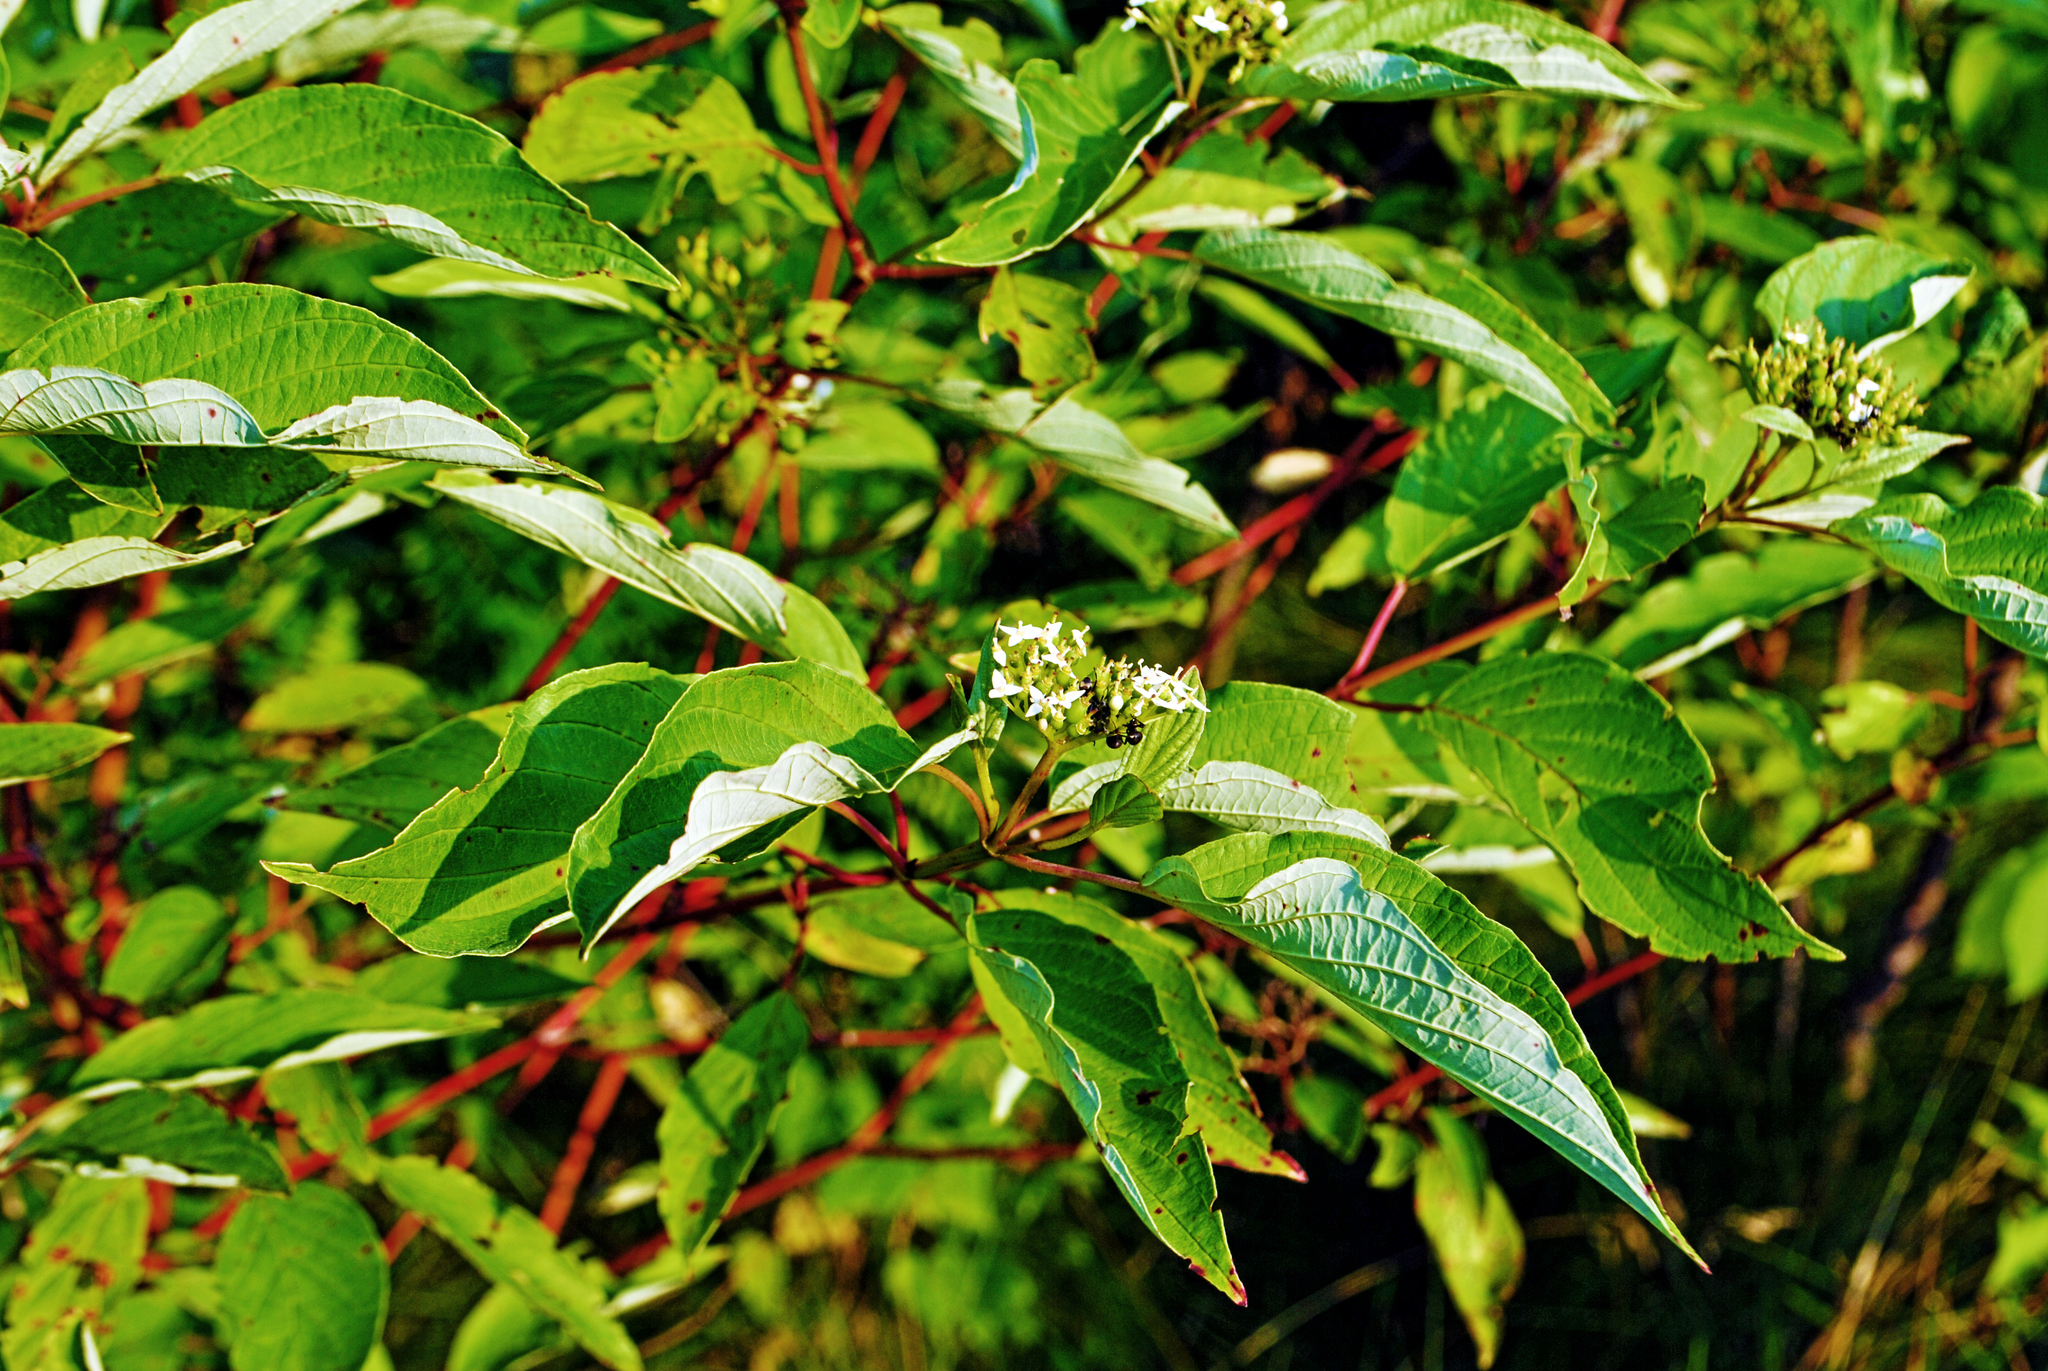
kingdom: Plantae
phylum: Tracheophyta
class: Magnoliopsida
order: Cornales
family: Cornaceae
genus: Cornus
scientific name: Cornus sericea
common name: Red-osier dogwood
